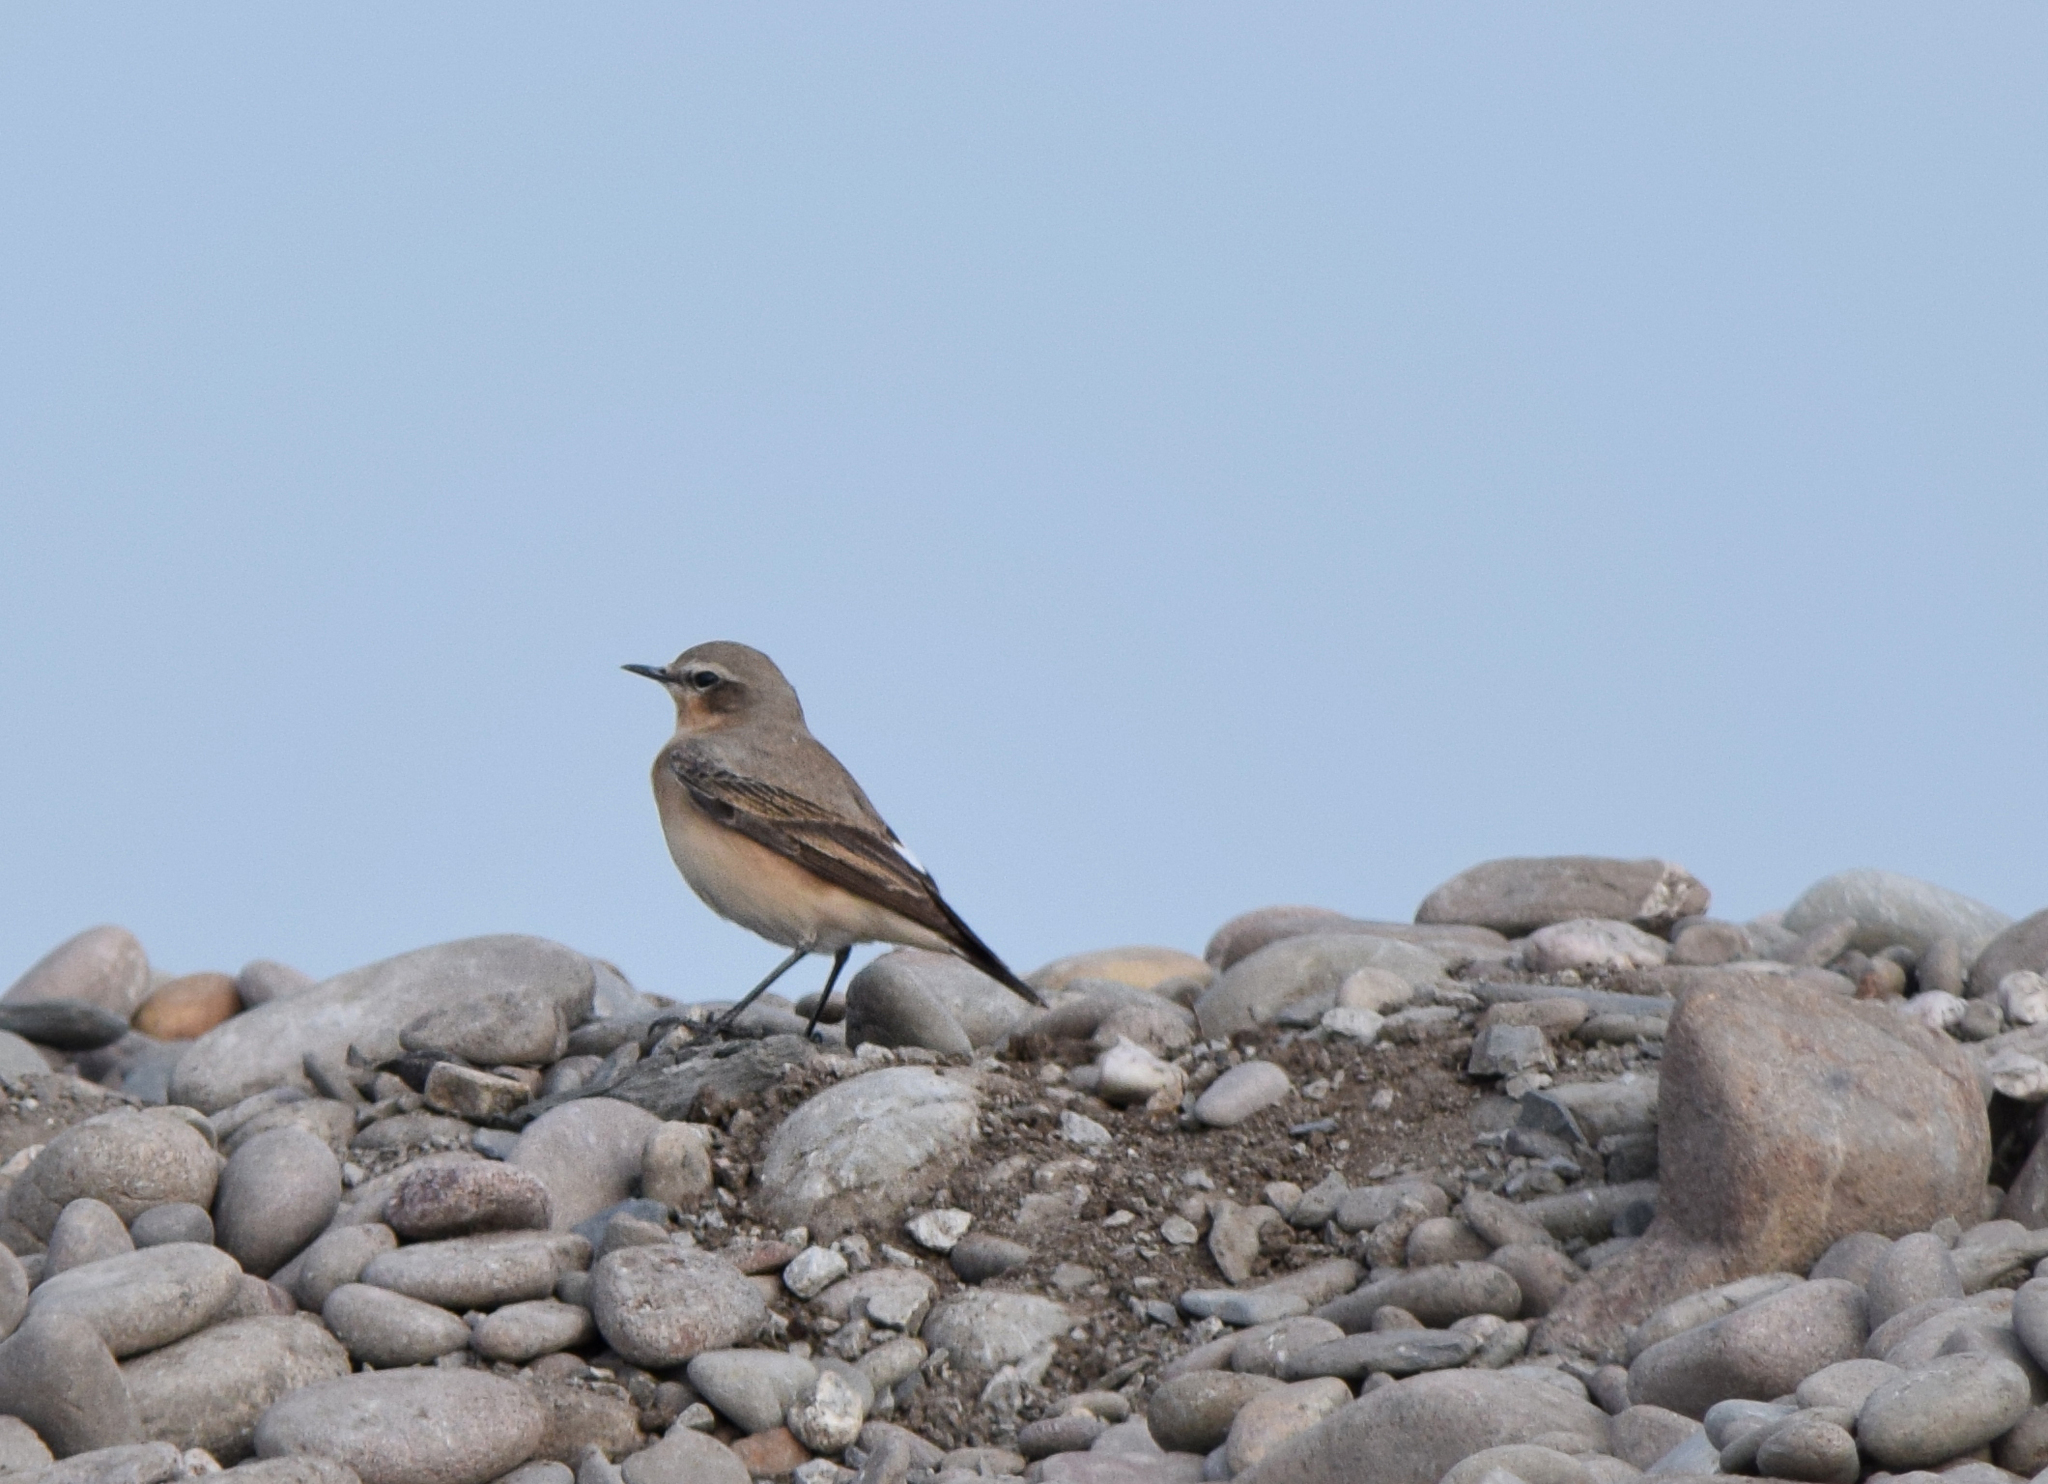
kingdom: Animalia
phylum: Chordata
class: Aves
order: Passeriformes
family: Muscicapidae
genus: Oenanthe
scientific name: Oenanthe oenanthe
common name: Northern wheatear
